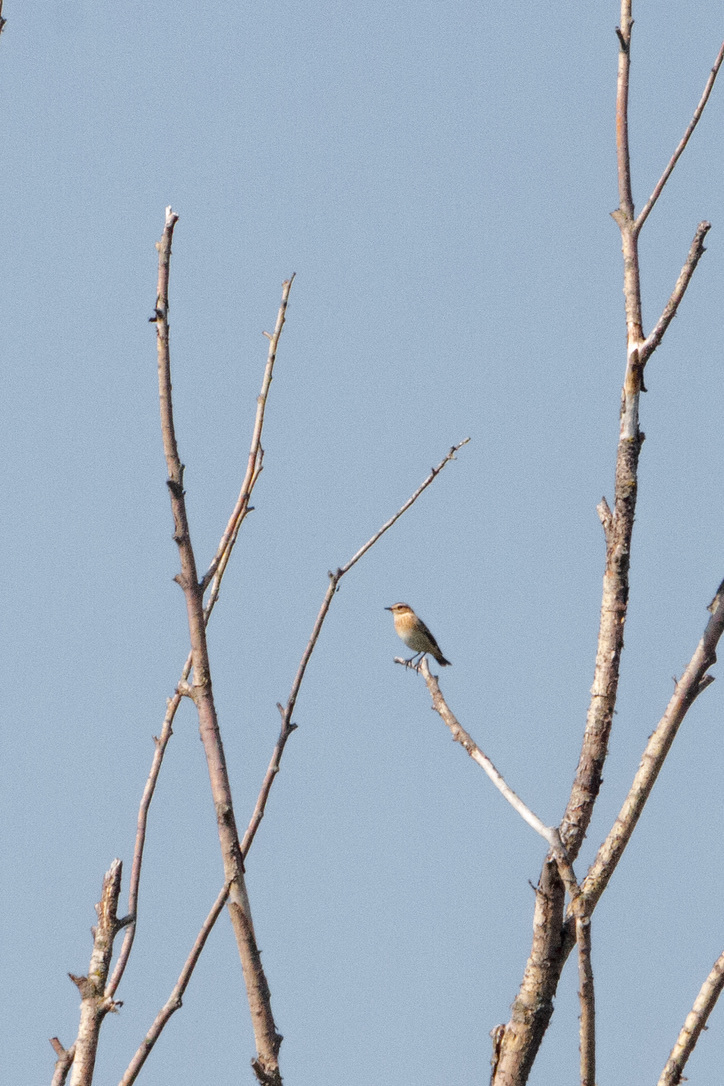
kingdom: Animalia
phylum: Chordata
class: Aves
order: Passeriformes
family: Muscicapidae
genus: Saxicola
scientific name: Saxicola rubetra
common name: Whinchat
